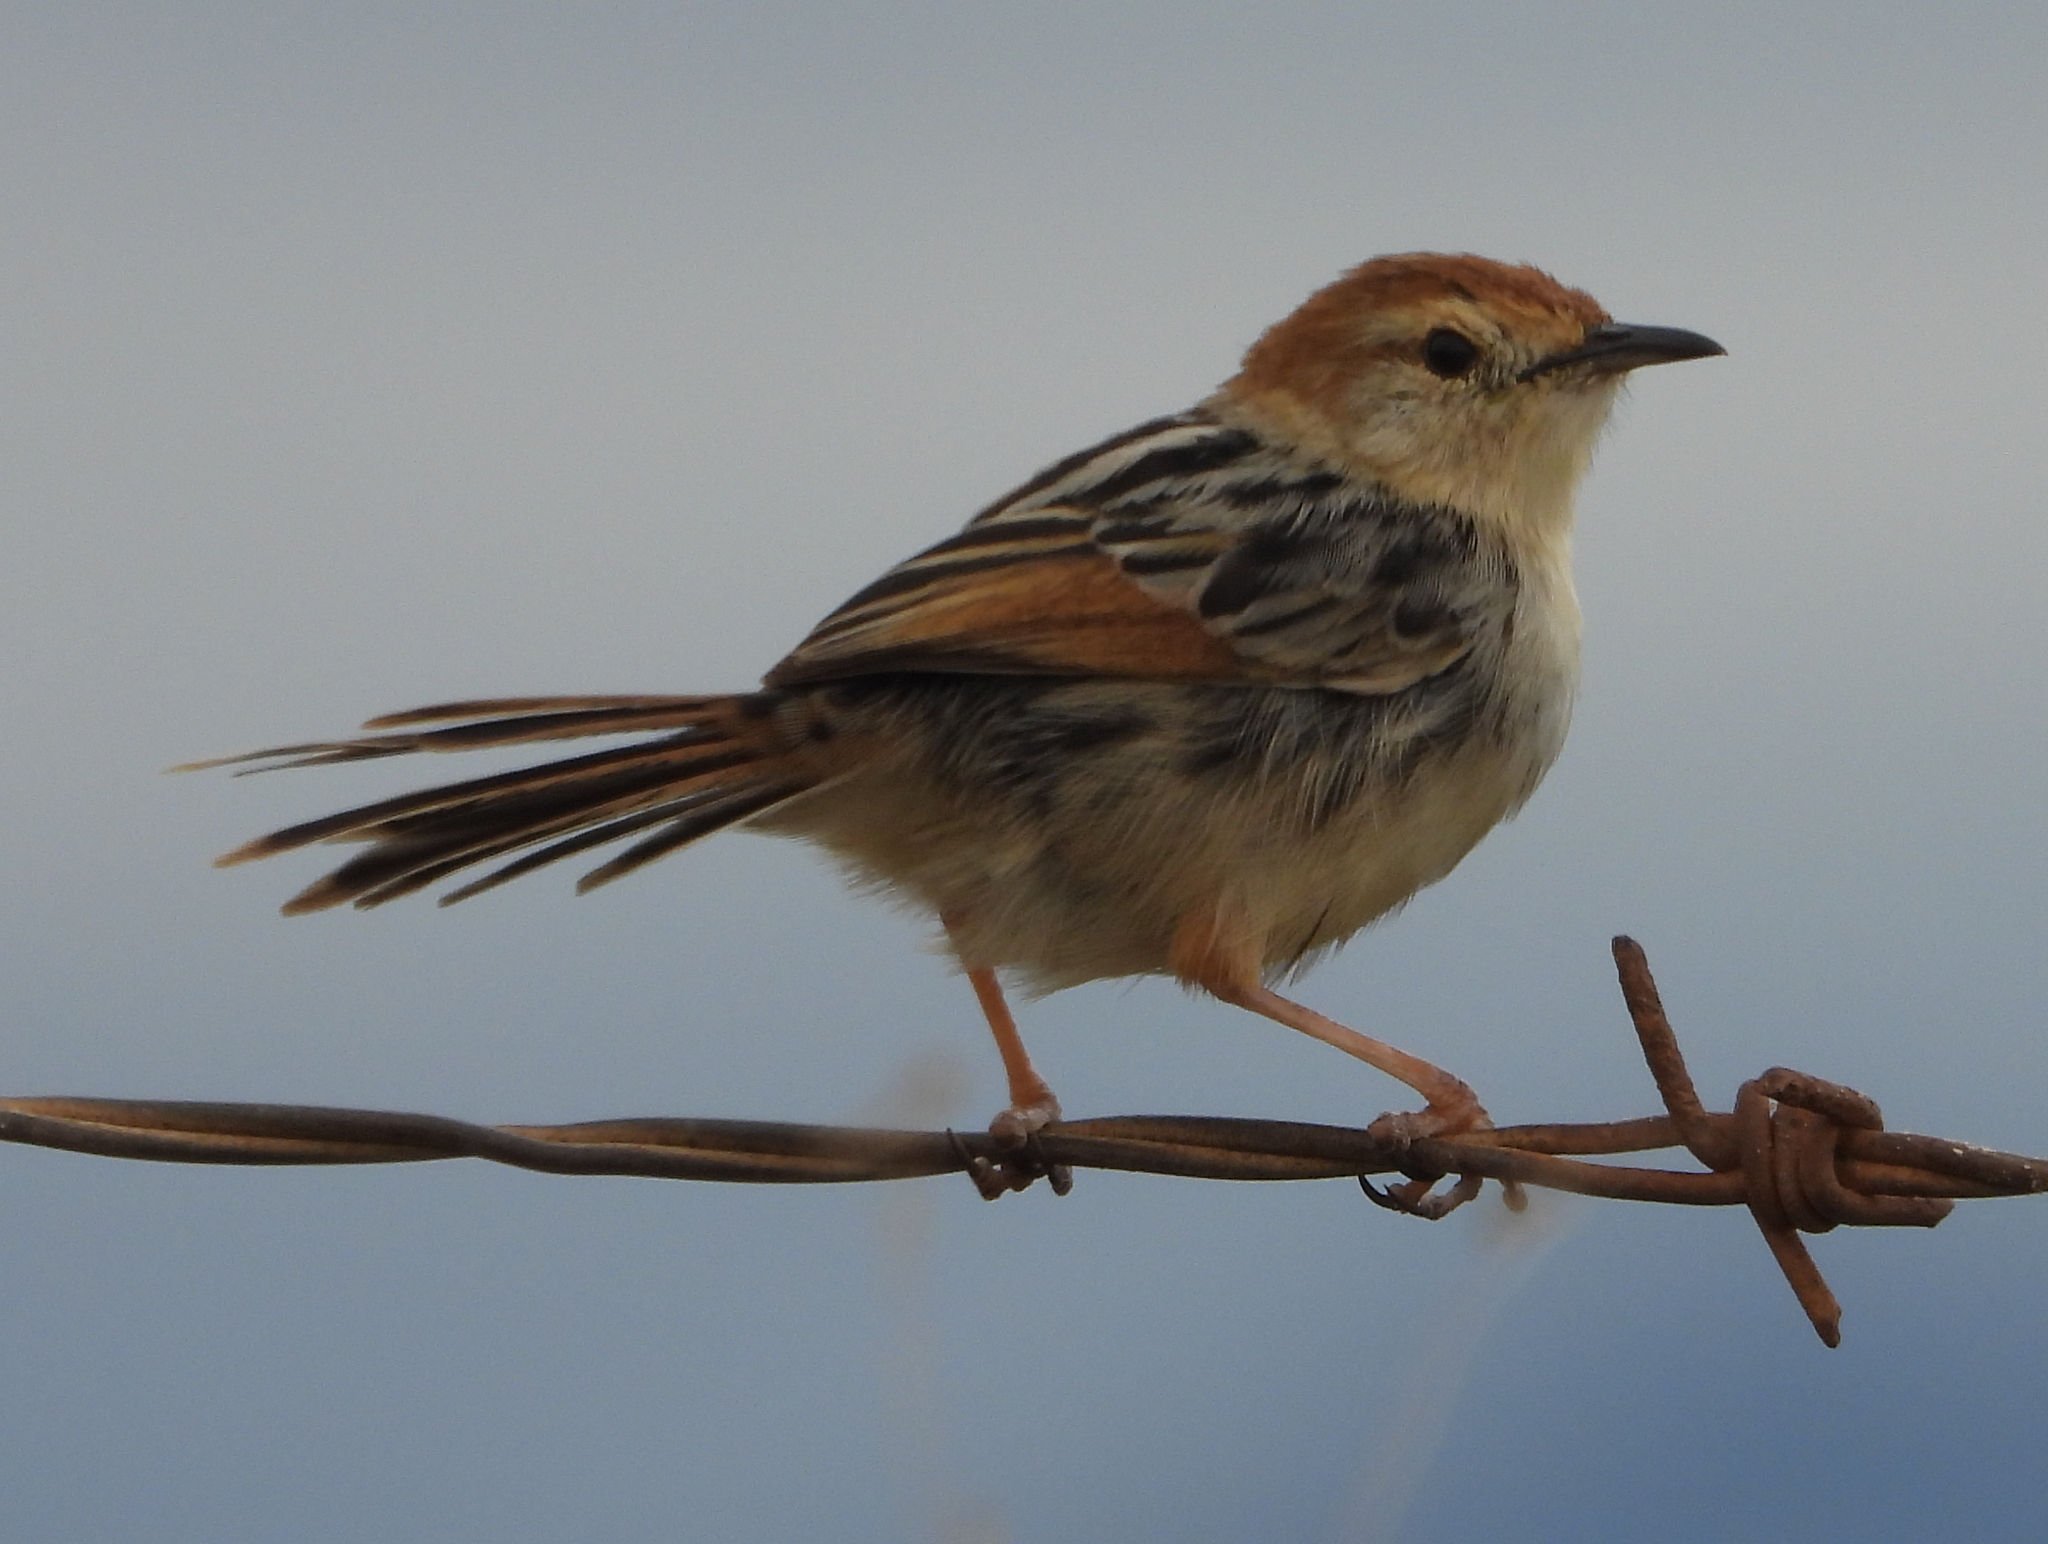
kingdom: Animalia
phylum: Chordata
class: Aves
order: Passeriformes
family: Cisticolidae
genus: Cisticola
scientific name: Cisticola tinniens
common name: Levaillant's cisticola
